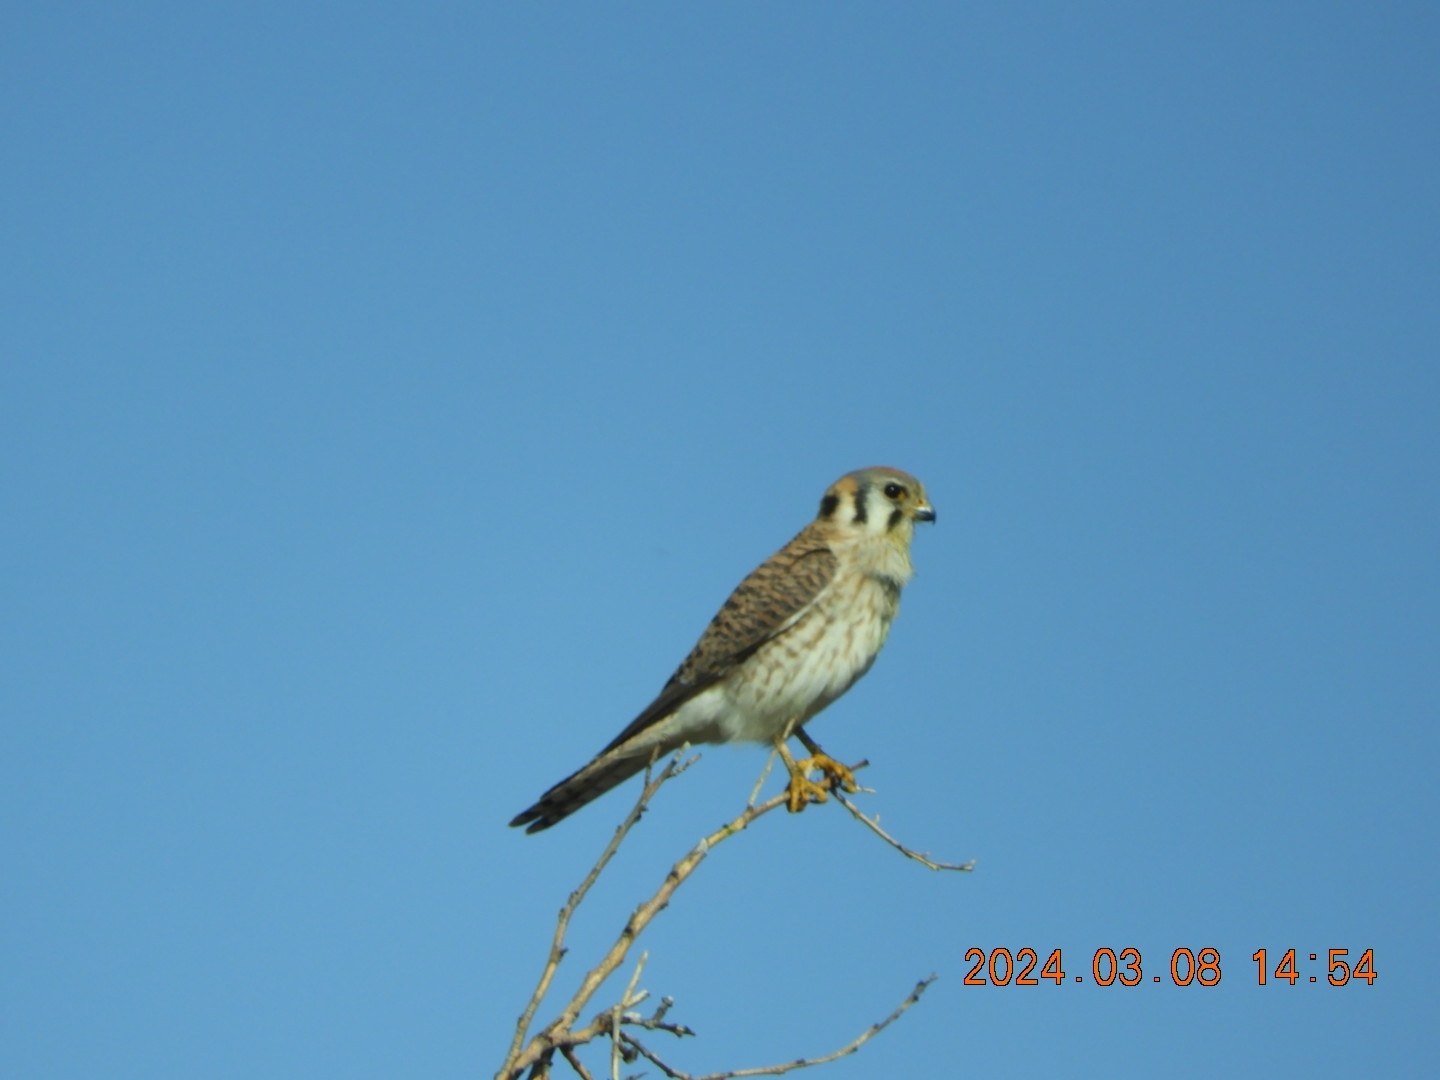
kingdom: Animalia
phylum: Chordata
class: Aves
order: Falconiformes
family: Falconidae
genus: Falco
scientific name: Falco sparverius
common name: American kestrel
